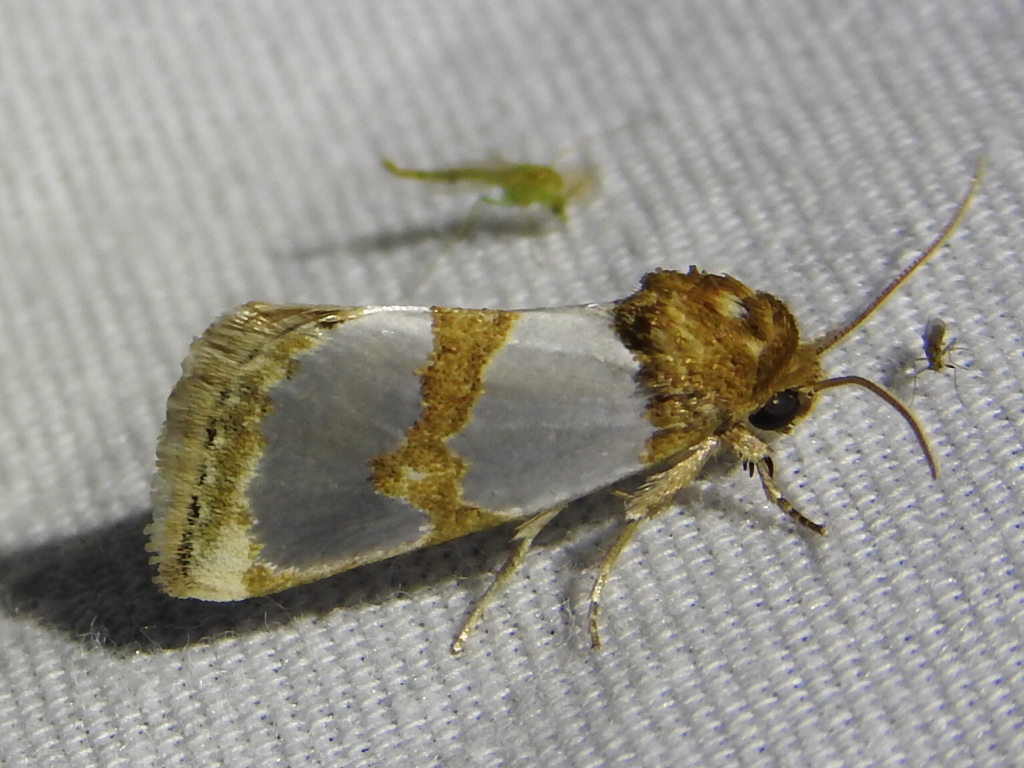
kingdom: Animalia
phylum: Arthropoda
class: Insecta
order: Lepidoptera
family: Noctuidae
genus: Schinia
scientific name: Schinia chrysellus
